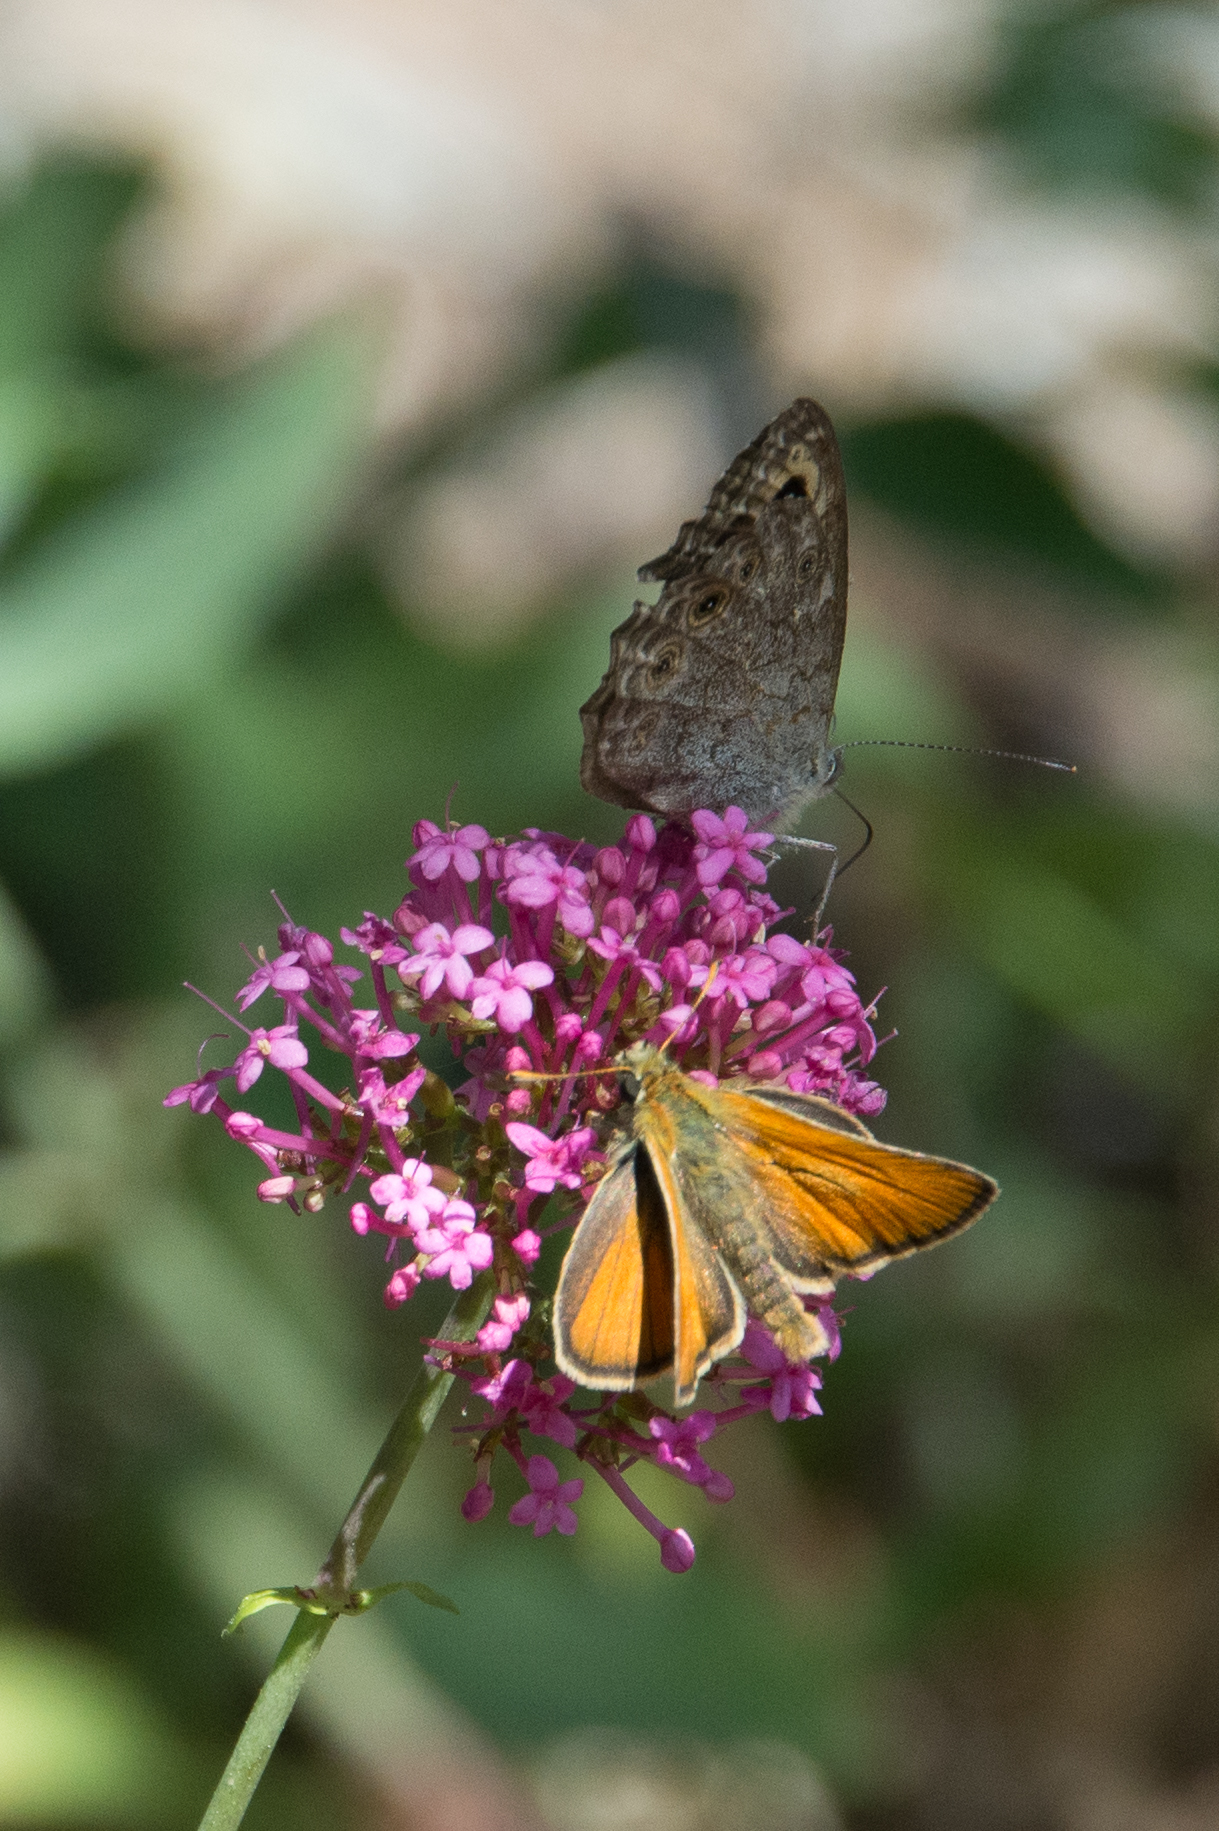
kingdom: Animalia
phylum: Arthropoda
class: Insecta
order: Lepidoptera
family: Hesperiidae
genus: Thymelicus
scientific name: Thymelicus sylvestris
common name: Small skipper
